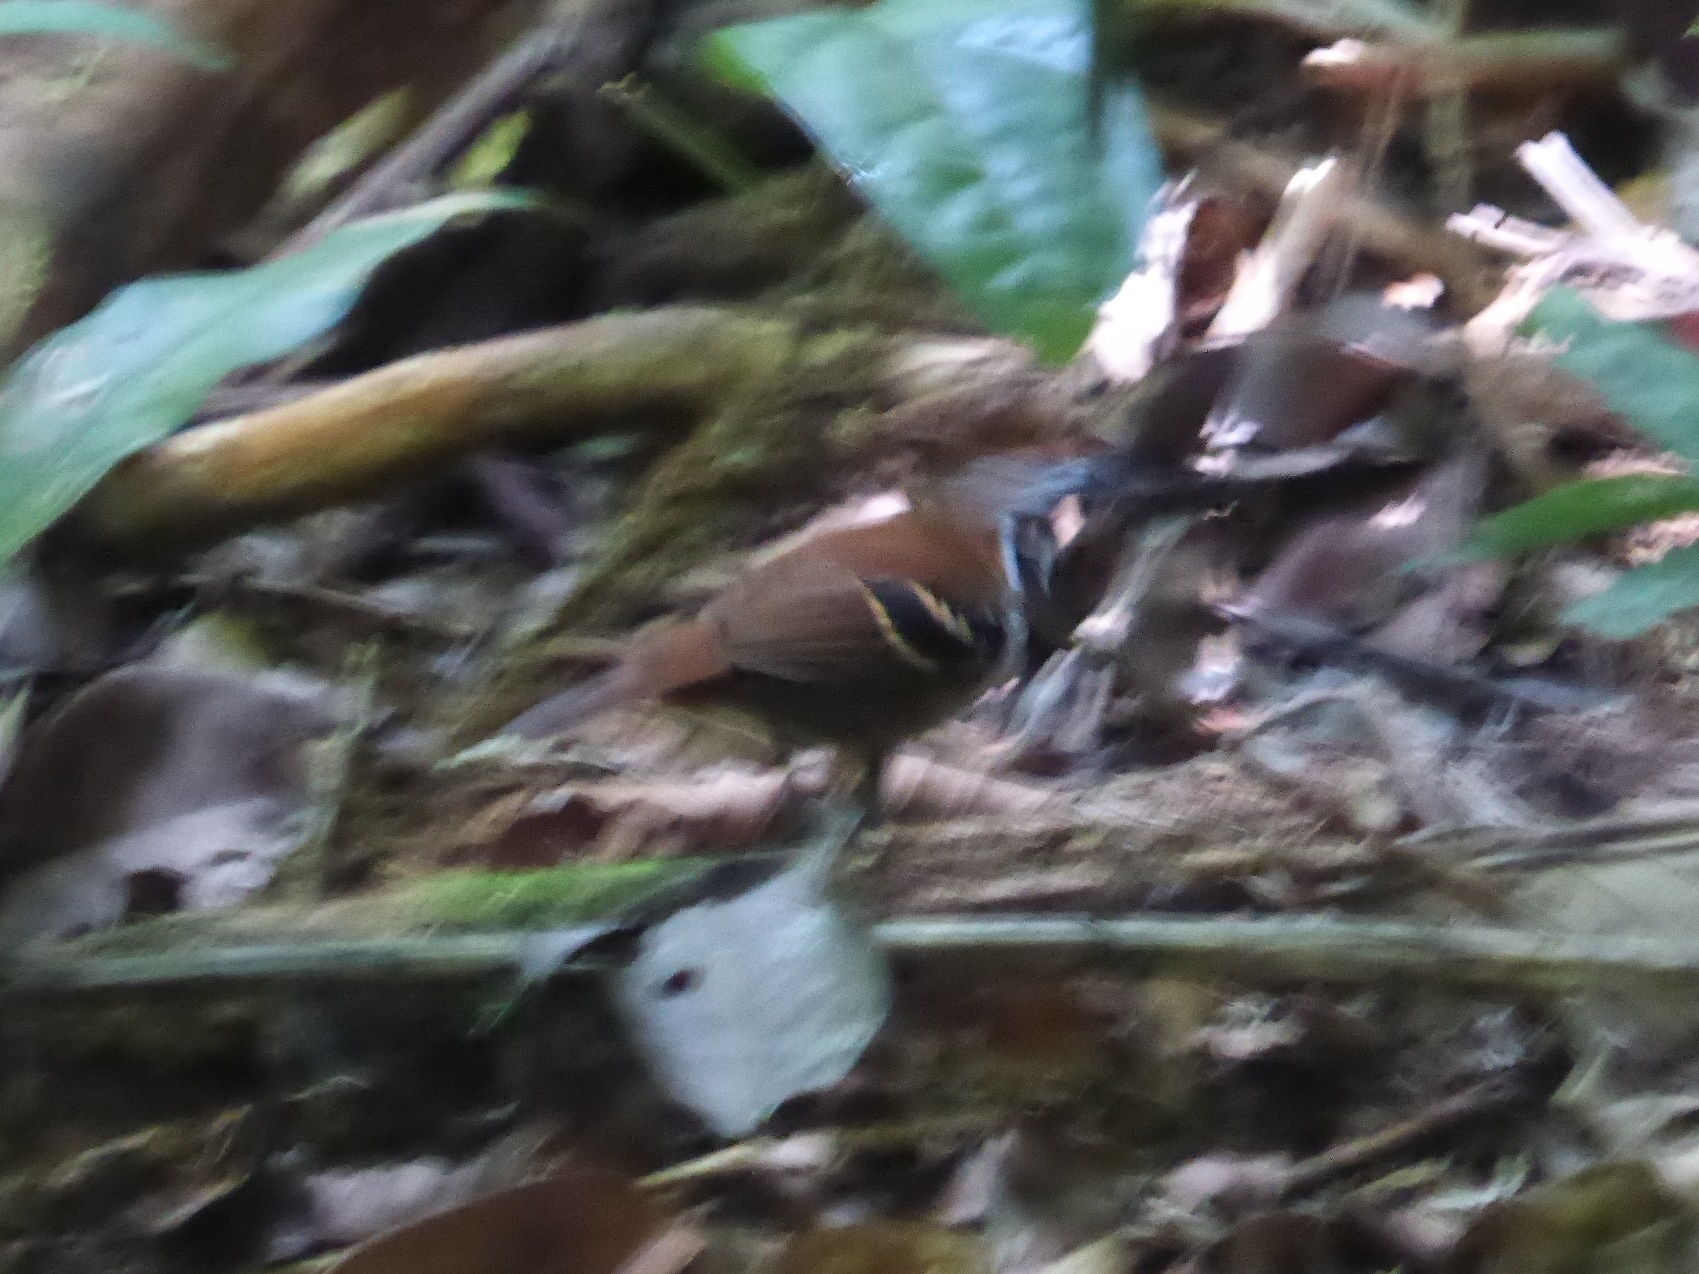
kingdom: Animalia
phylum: Chordata
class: Aves
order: Passeriformes
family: Thamnophilidae
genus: Myrmeciza
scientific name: Myrmeciza ferruginea
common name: Ferruginous-backed antbird
